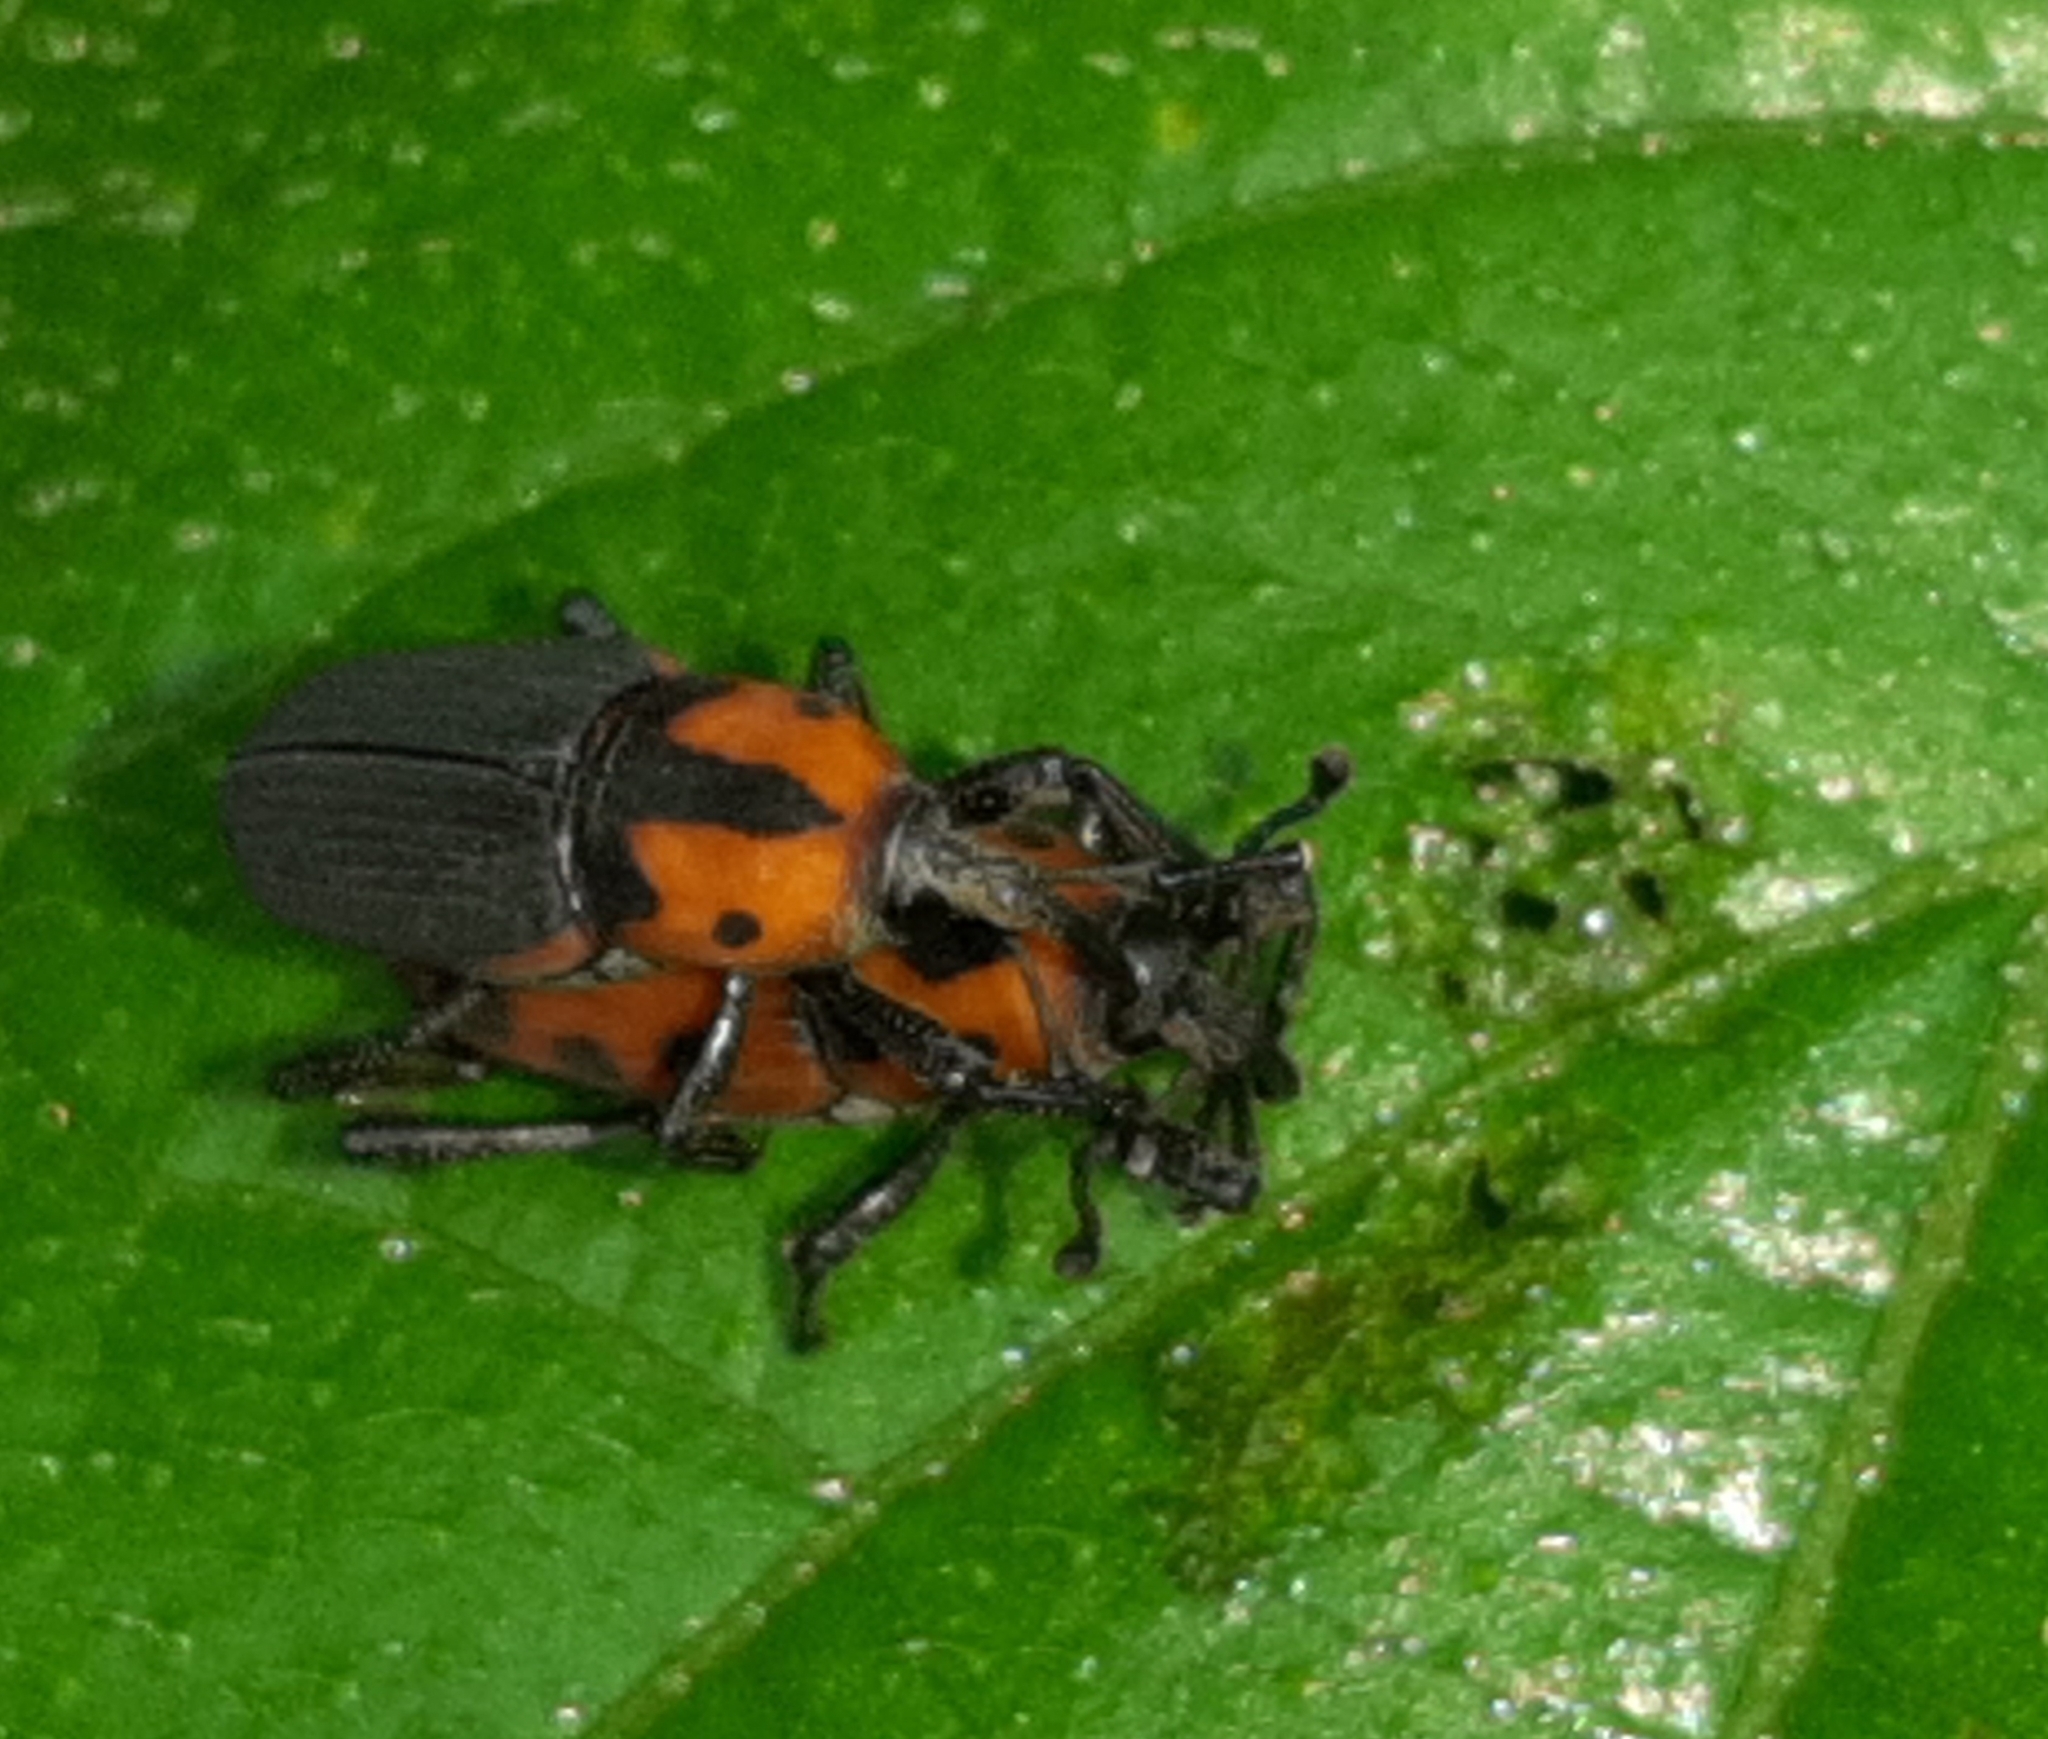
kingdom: Animalia
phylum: Arthropoda
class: Insecta
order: Coleoptera
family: Dryophthoridae
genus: Rhodobaenus
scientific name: Rhodobaenus auctus
